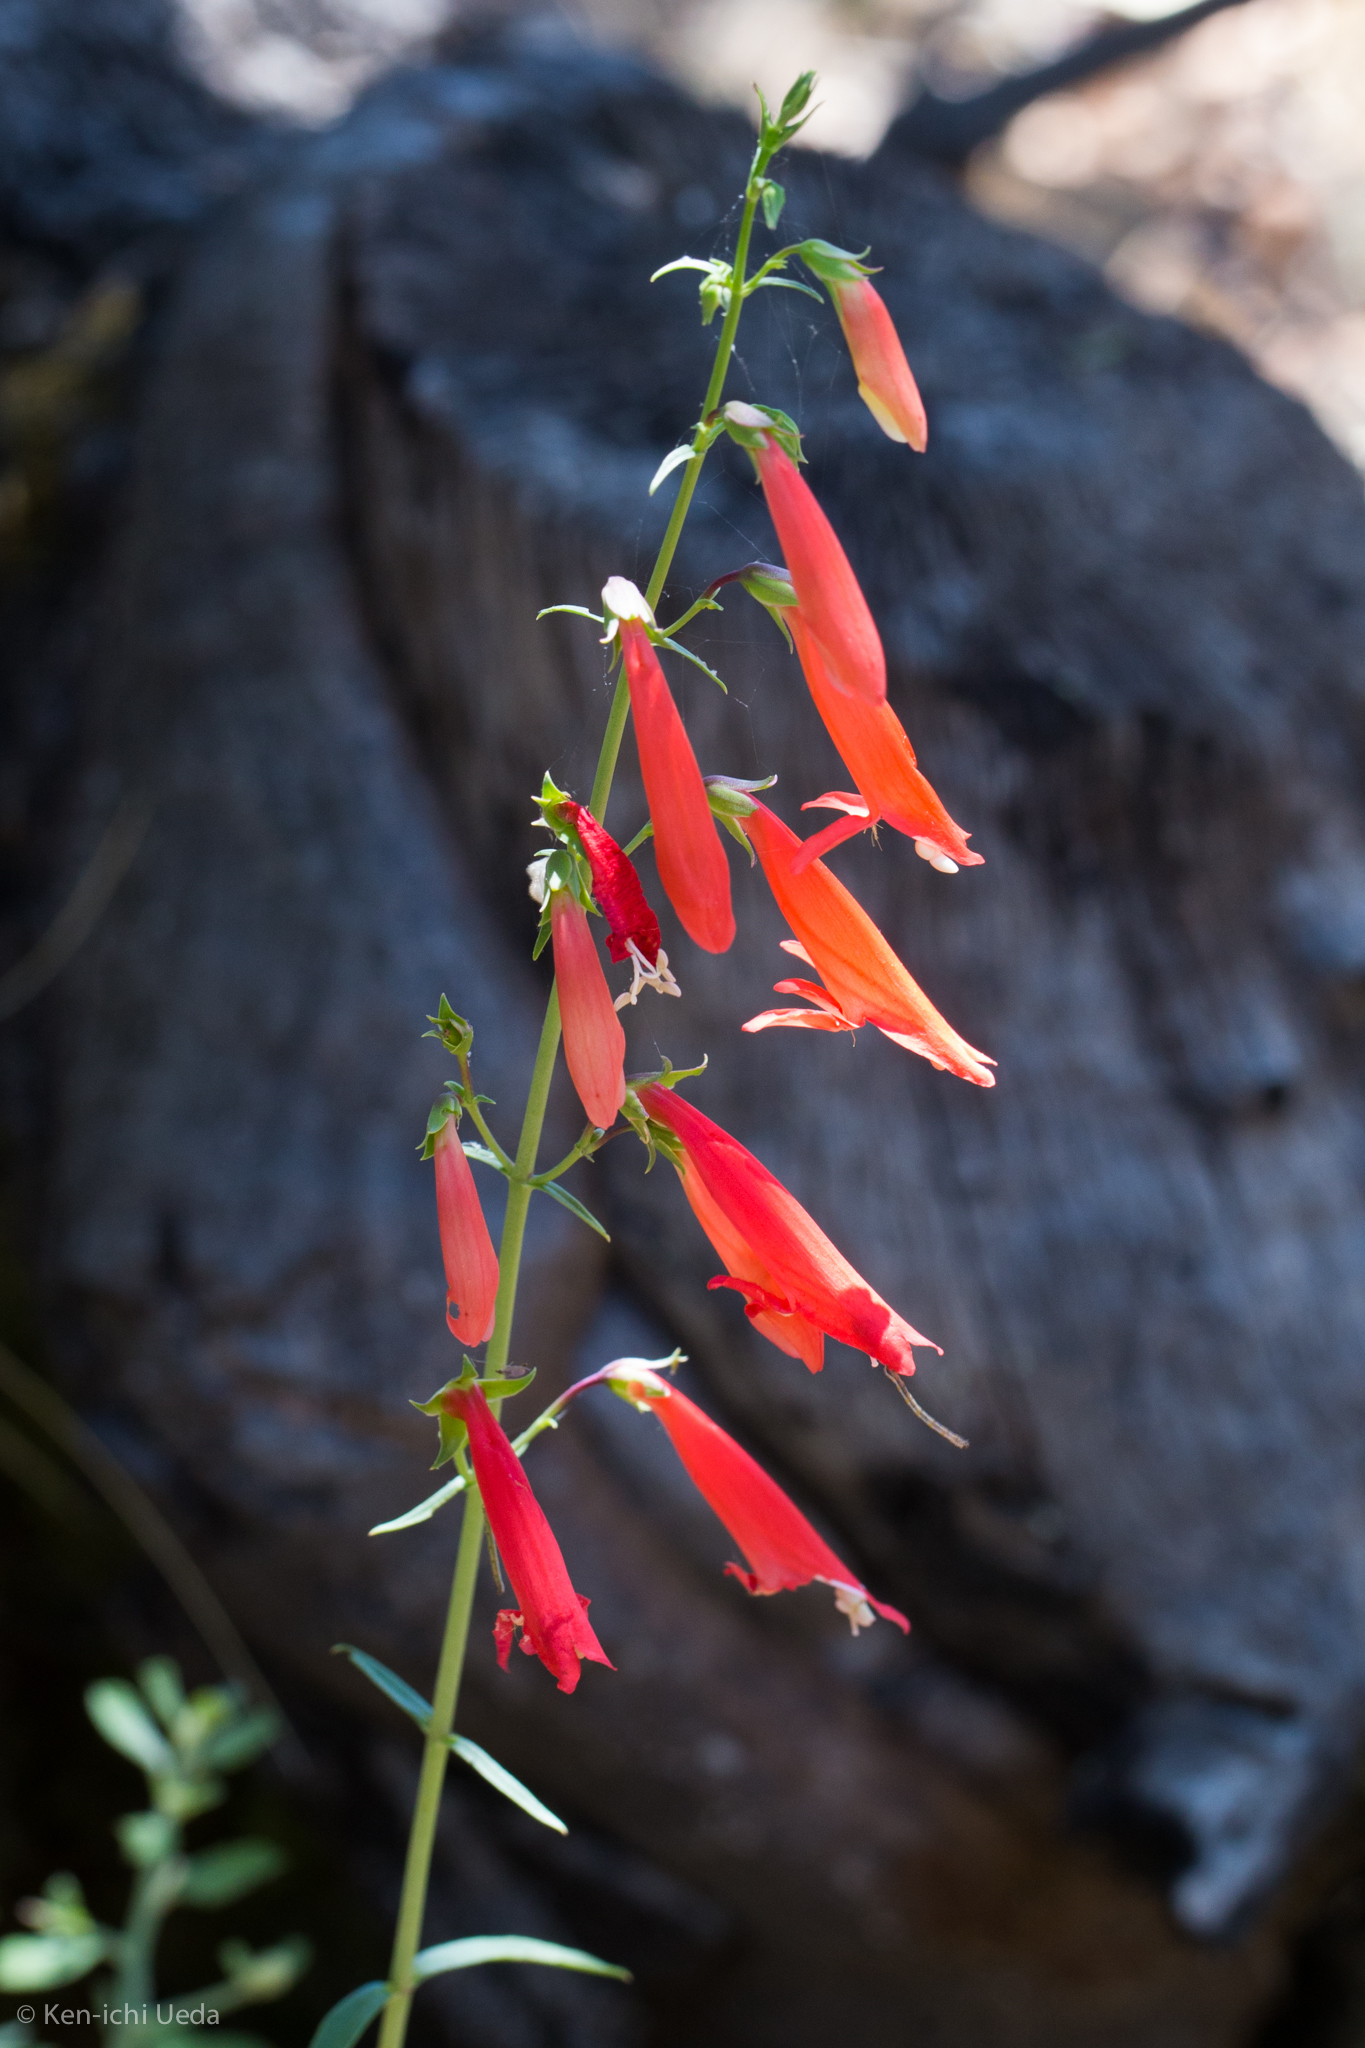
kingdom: Plantae
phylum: Tracheophyta
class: Magnoliopsida
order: Lamiales
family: Plantaginaceae
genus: Penstemon
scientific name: Penstemon barbatus
